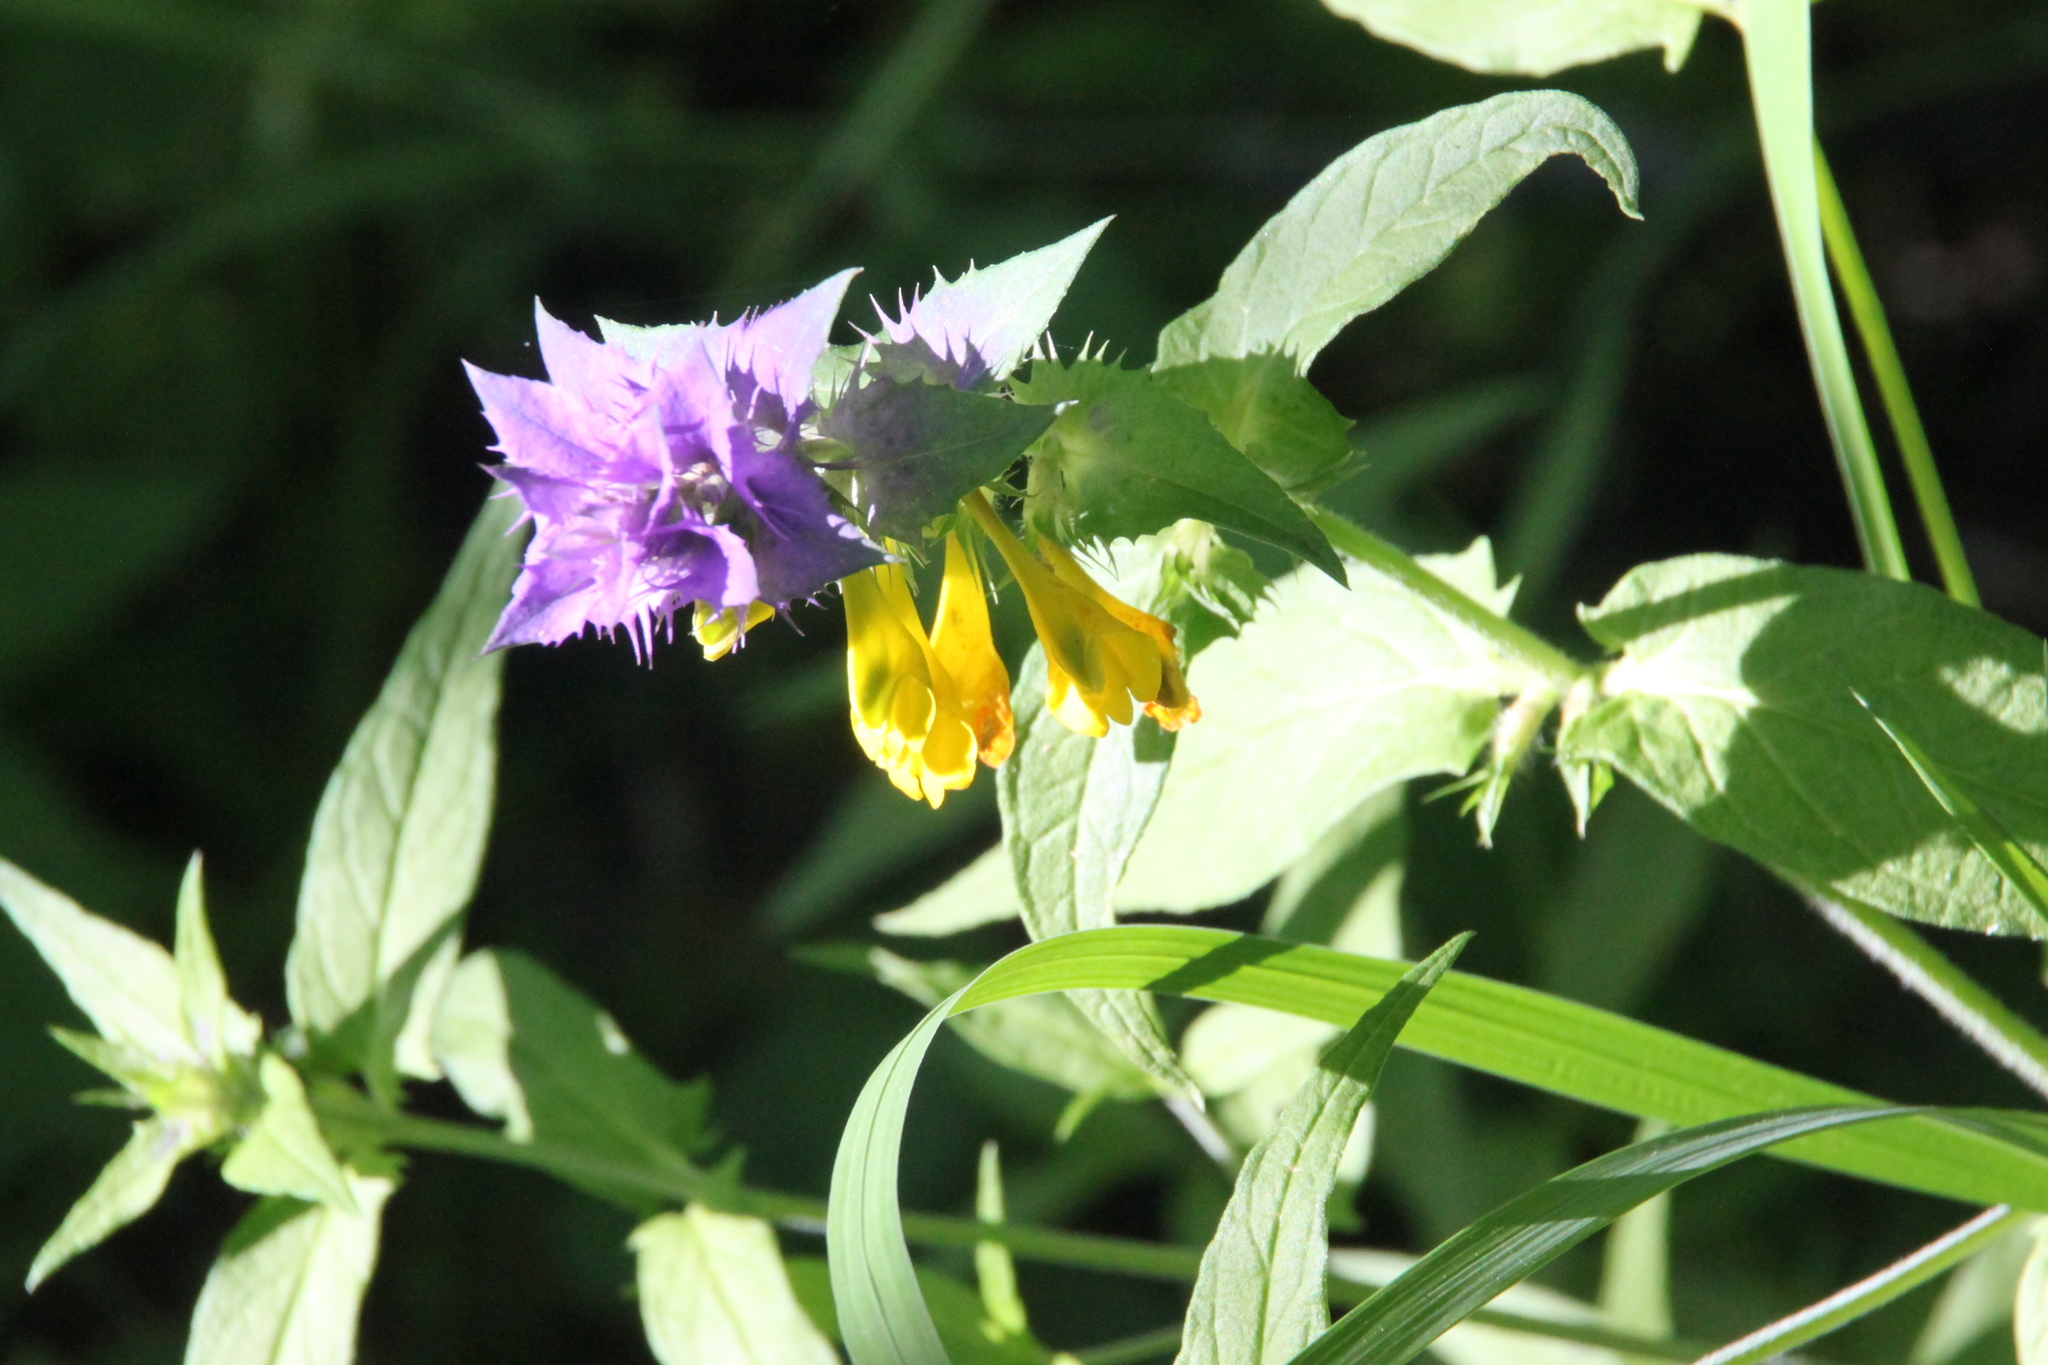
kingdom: Plantae
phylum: Tracheophyta
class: Magnoliopsida
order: Lamiales
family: Orobanchaceae
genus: Melampyrum
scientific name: Melampyrum nemorosum
